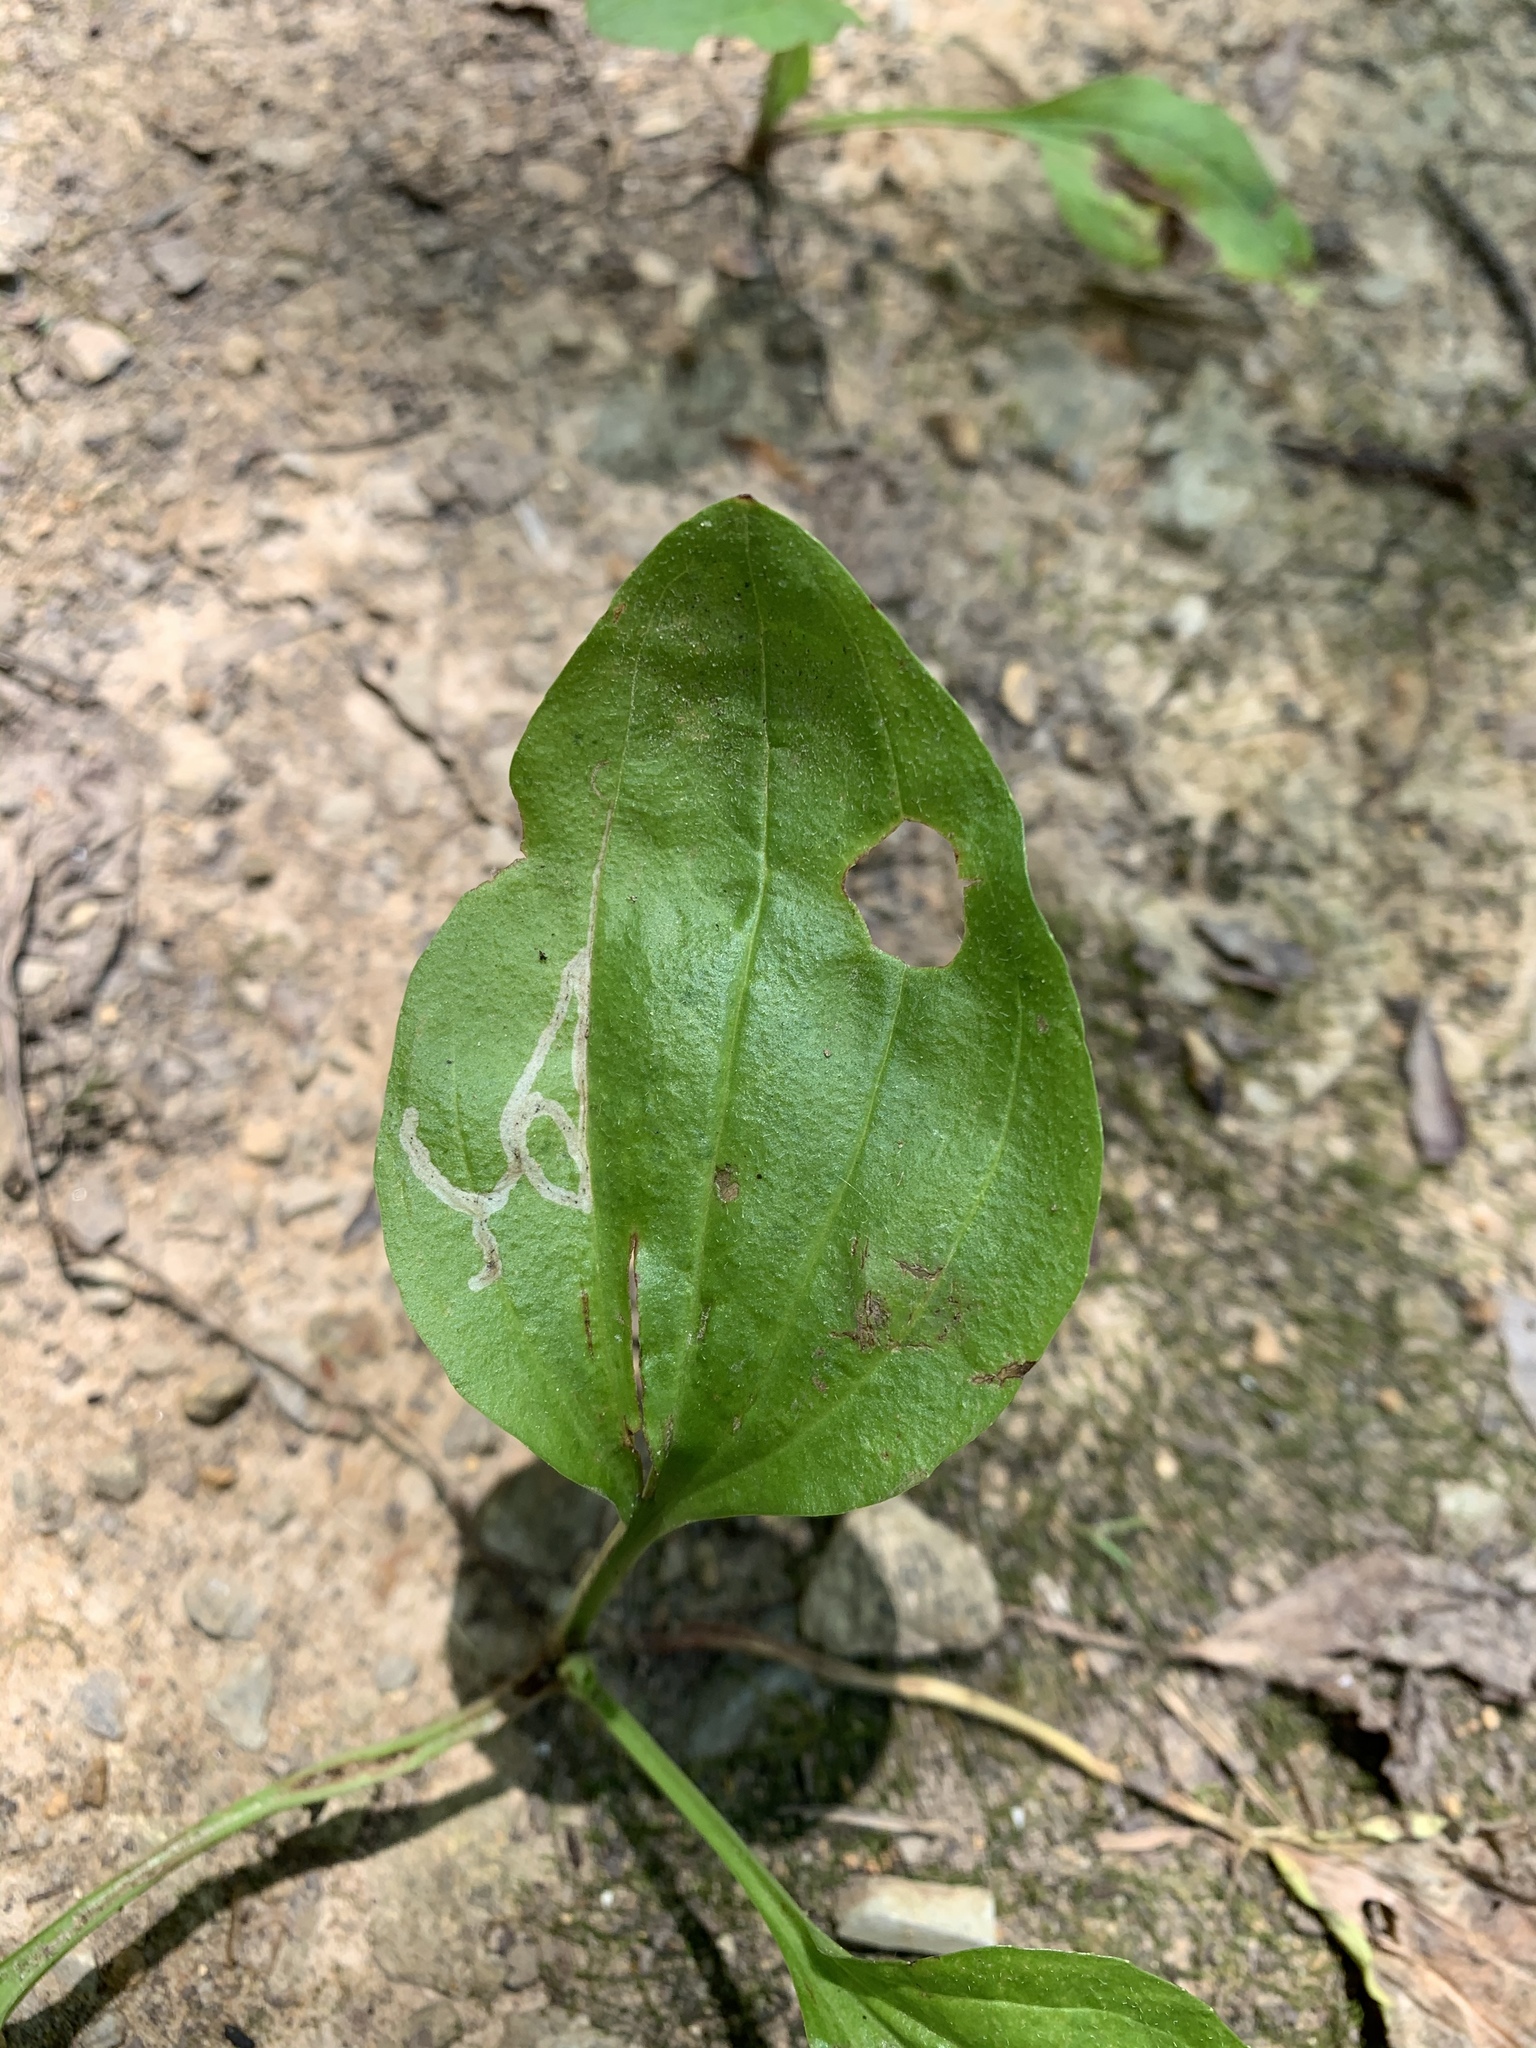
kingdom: Animalia
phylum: Arthropoda
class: Insecta
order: Diptera
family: Agromyzidae
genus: Phytomyza
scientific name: Phytomyza plantaginis
